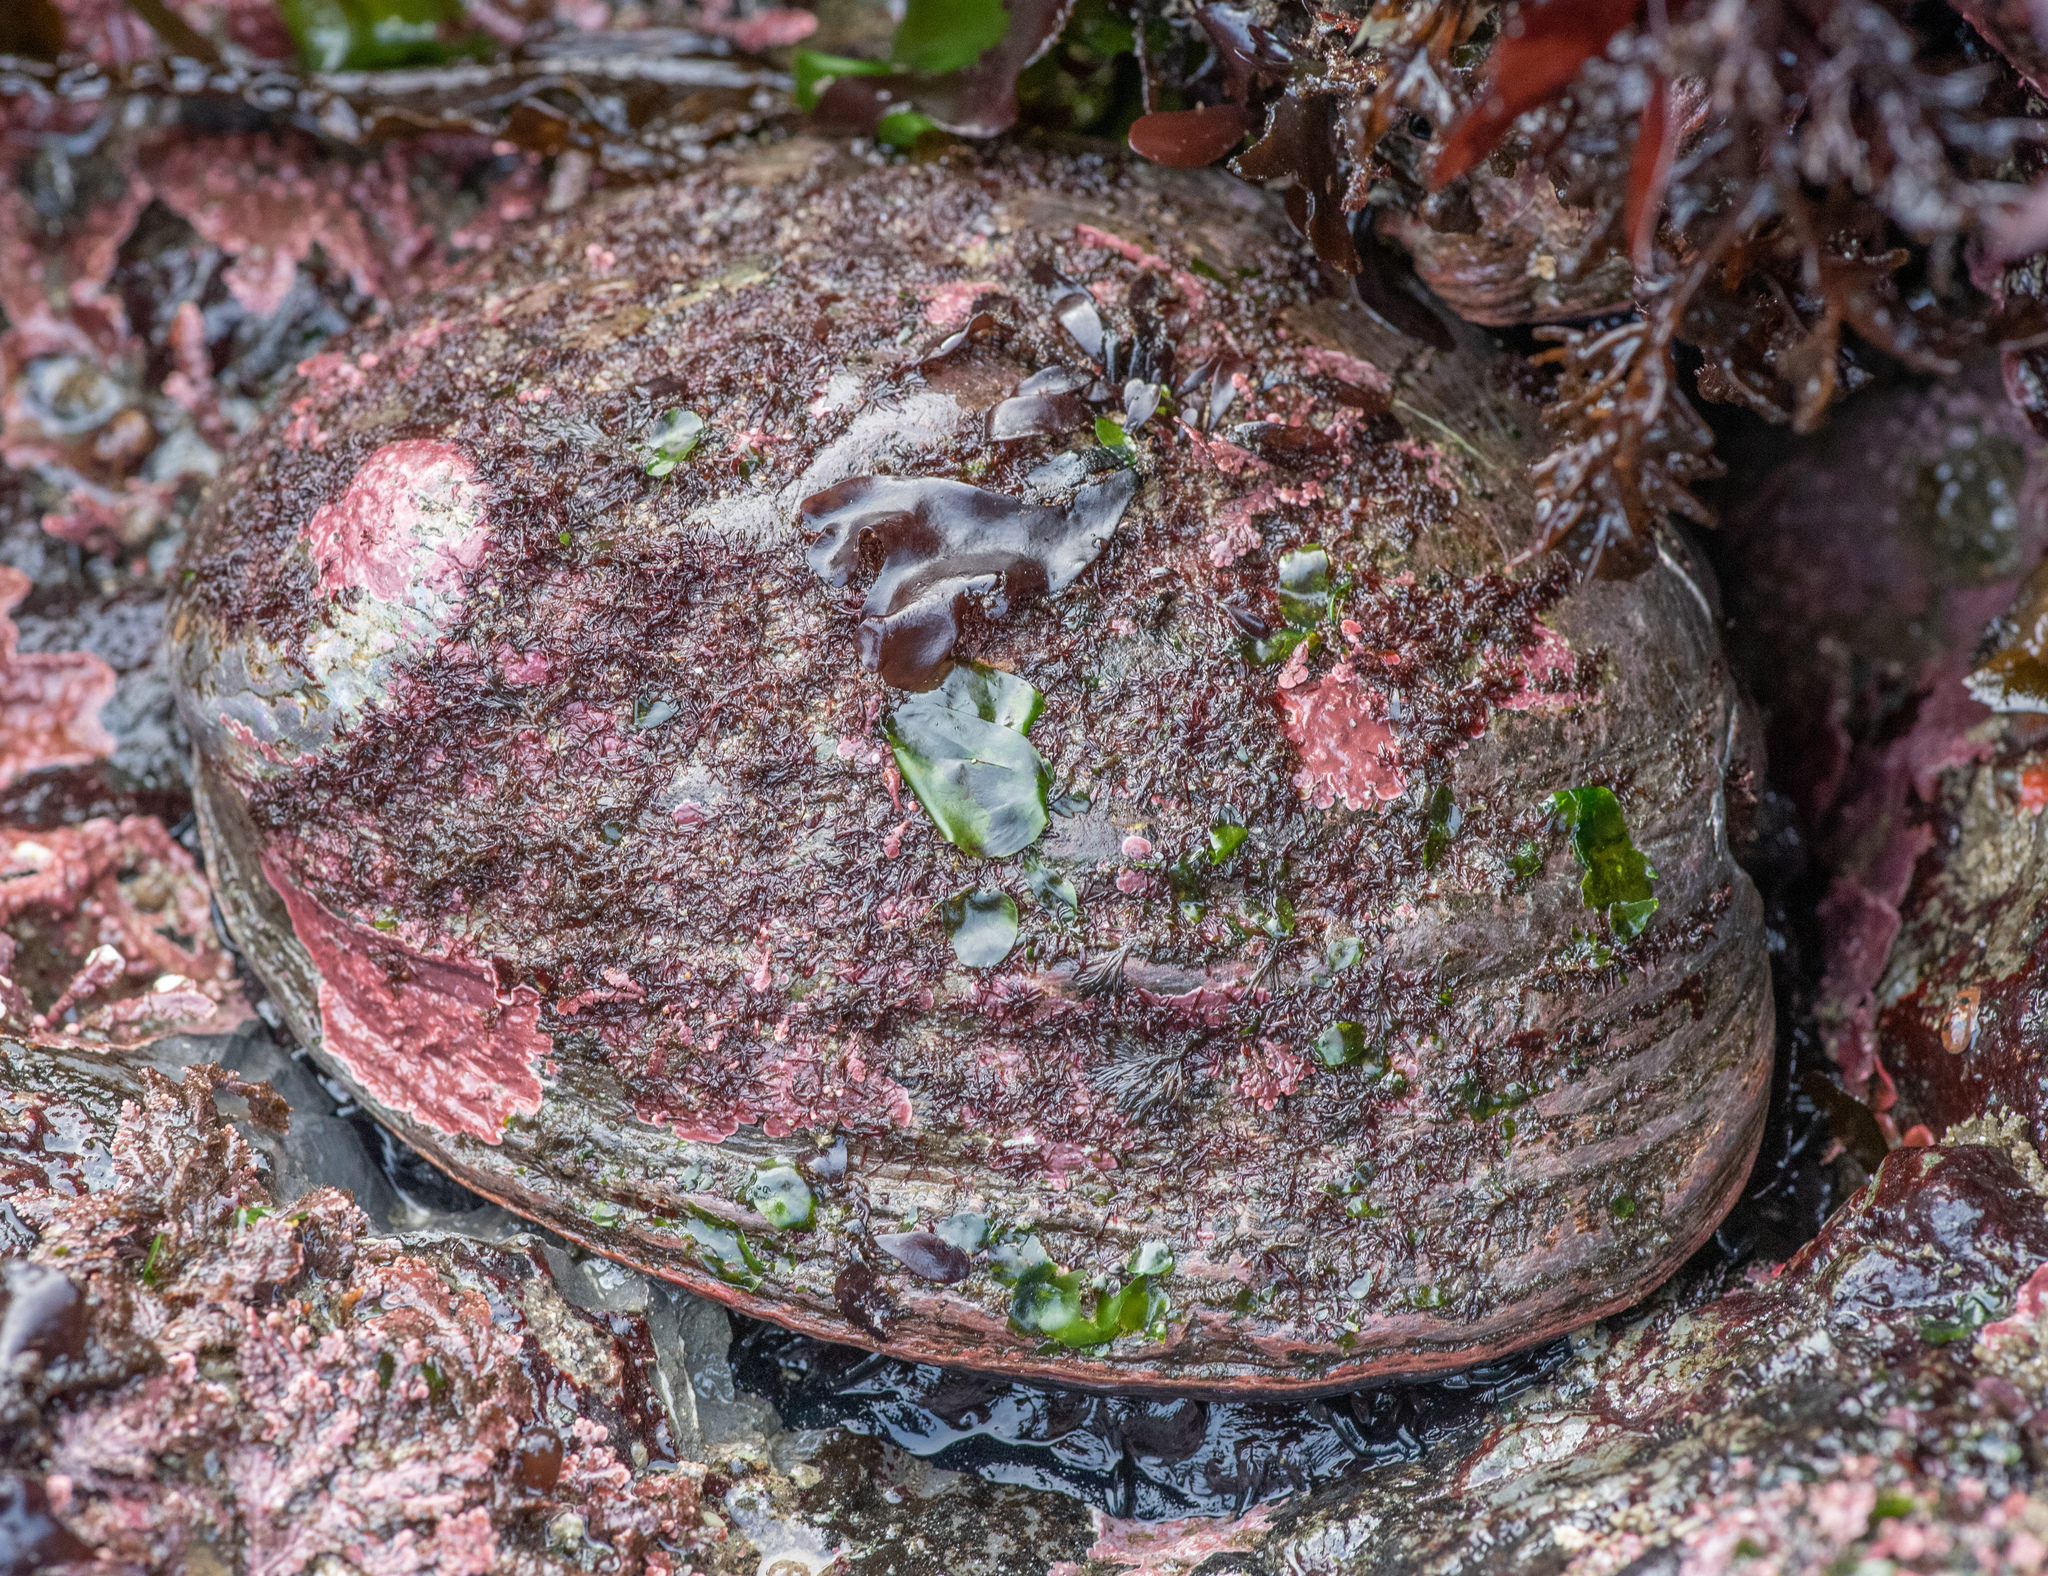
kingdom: Animalia
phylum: Mollusca
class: Gastropoda
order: Lepetellida
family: Haliotidae
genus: Haliotis
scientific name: Haliotis rufescens
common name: Red abalone
